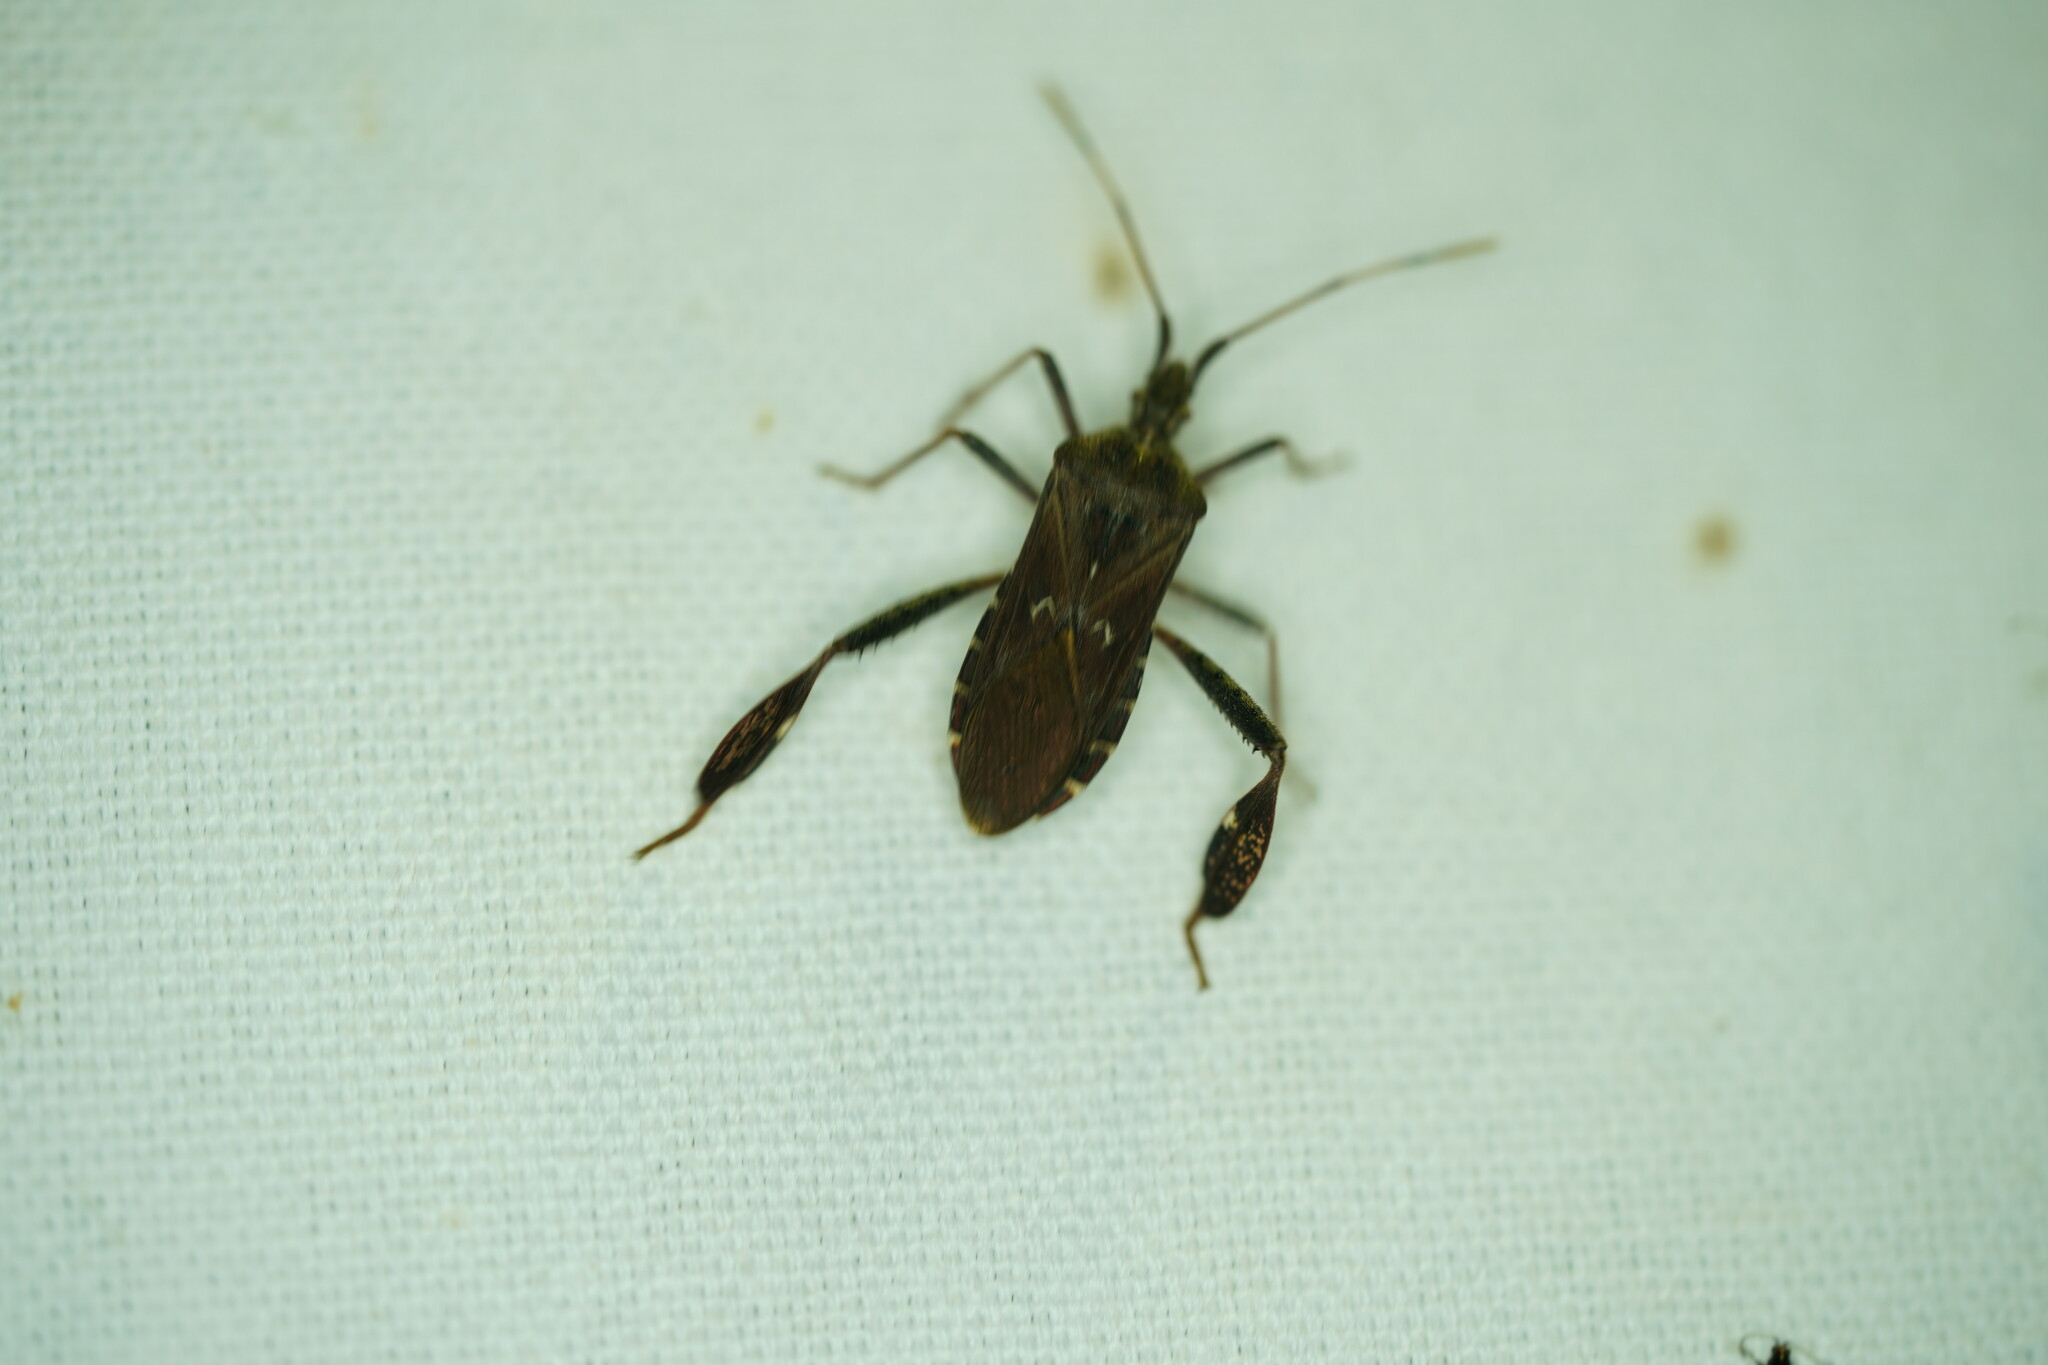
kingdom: Animalia
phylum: Arthropoda
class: Insecta
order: Hemiptera
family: Coreidae
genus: Leptoglossus
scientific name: Leptoglossus corculus
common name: Southern pine seed bug
